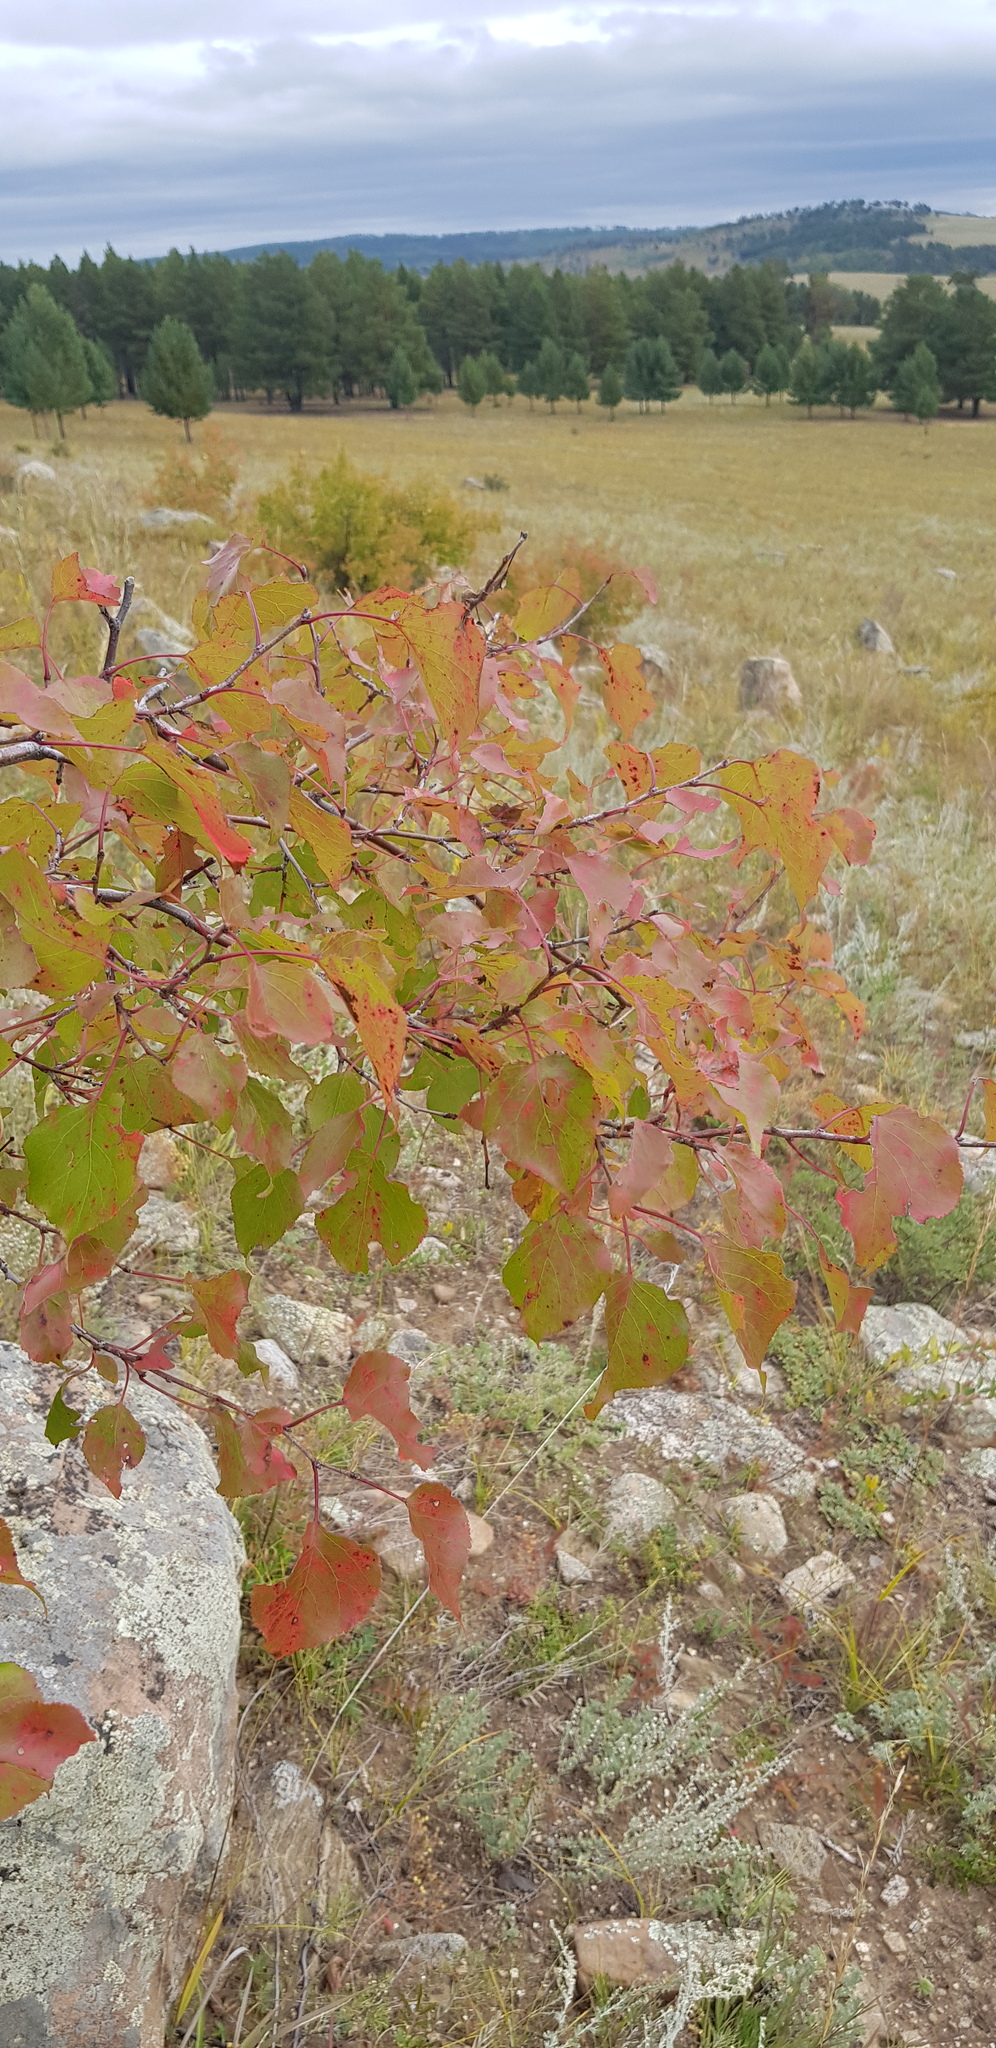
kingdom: Plantae
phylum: Tracheophyta
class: Magnoliopsida
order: Rosales
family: Rosaceae
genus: Prunus
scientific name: Prunus sibirica
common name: Siberian apricot
